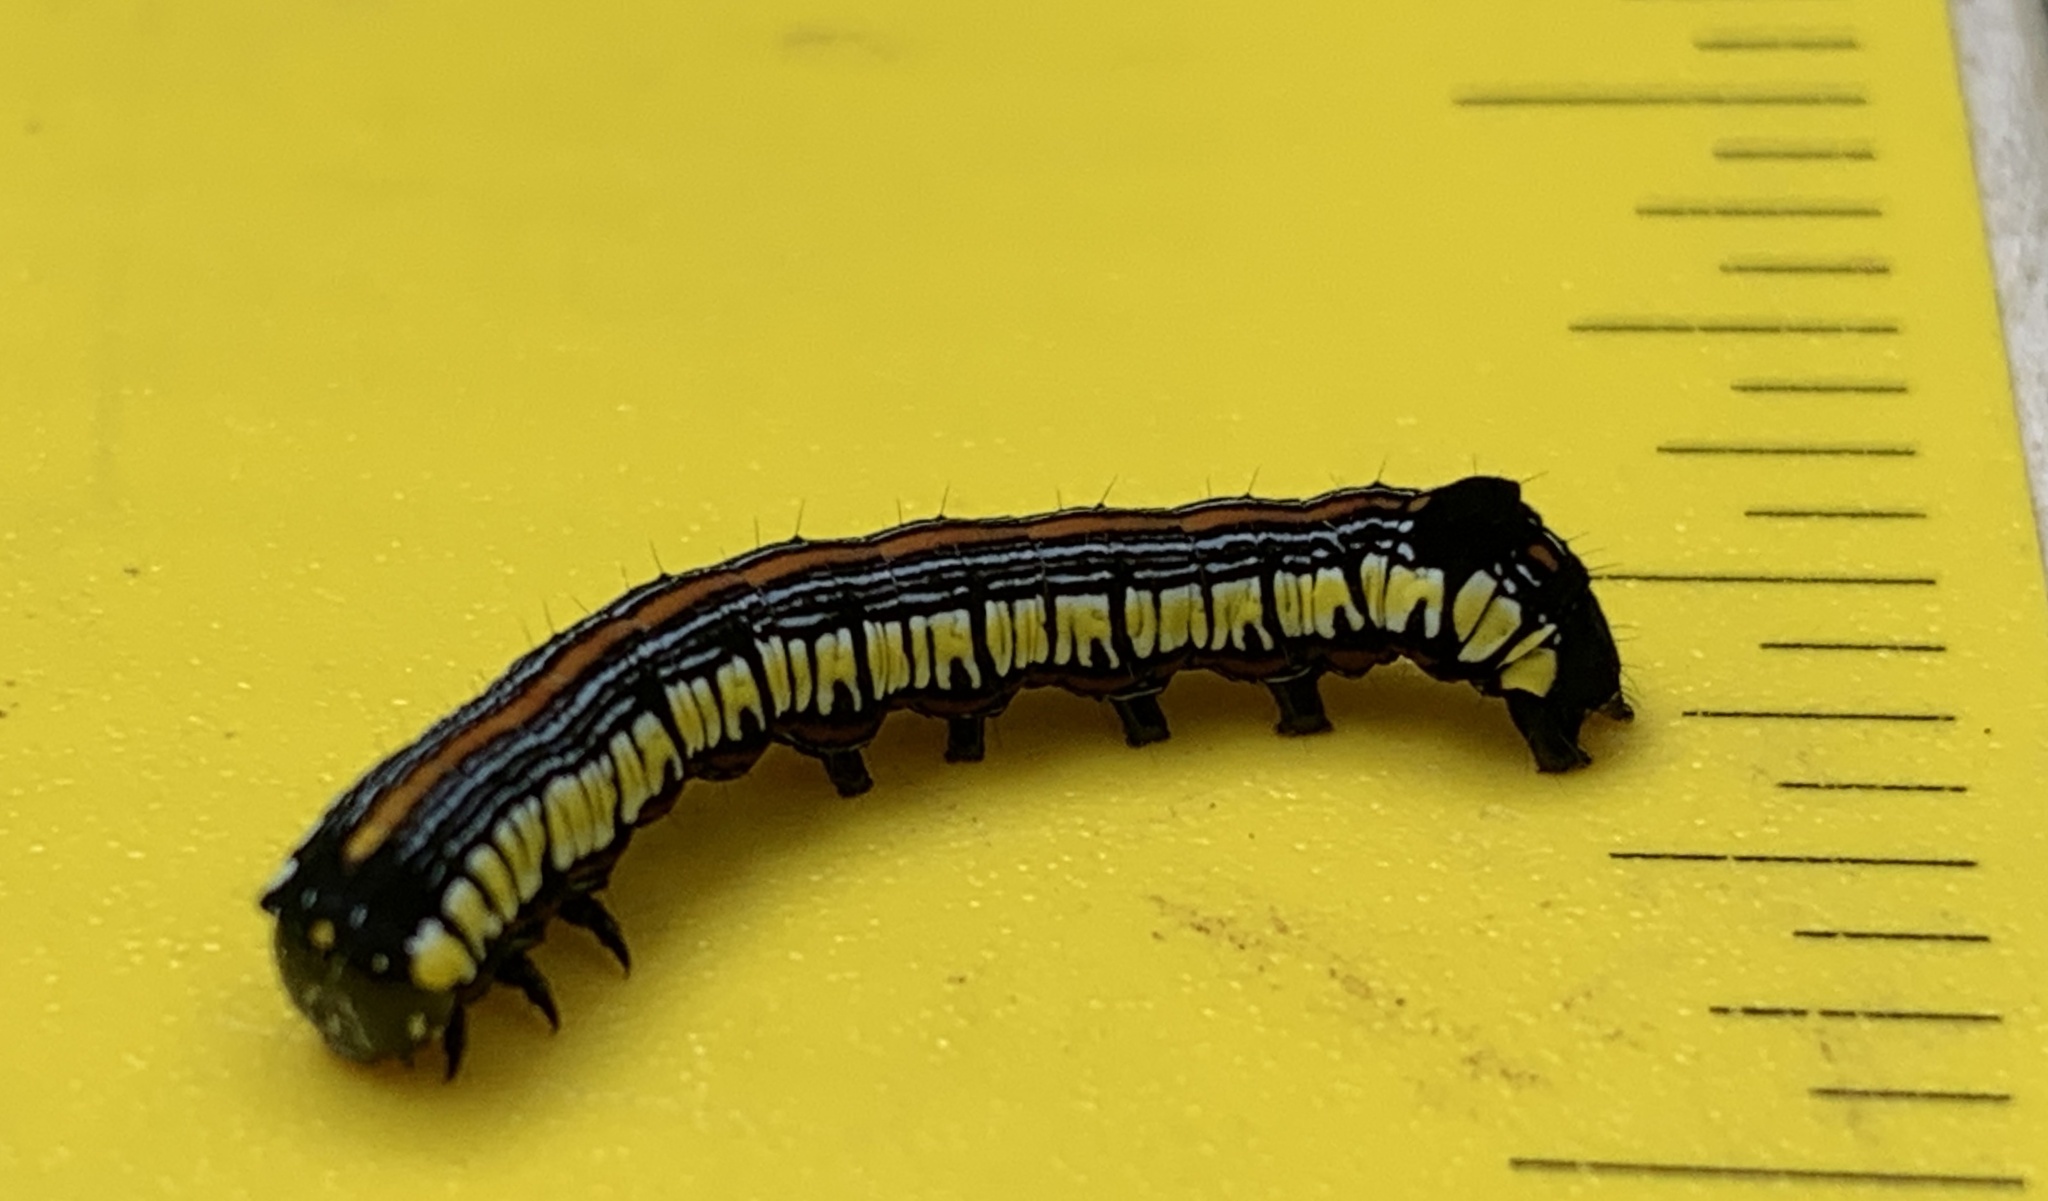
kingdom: Animalia
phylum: Arthropoda
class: Insecta
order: Lepidoptera
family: Noctuidae
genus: Cucullia
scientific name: Cucullia convexipennis
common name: Brown-hooded owlet
